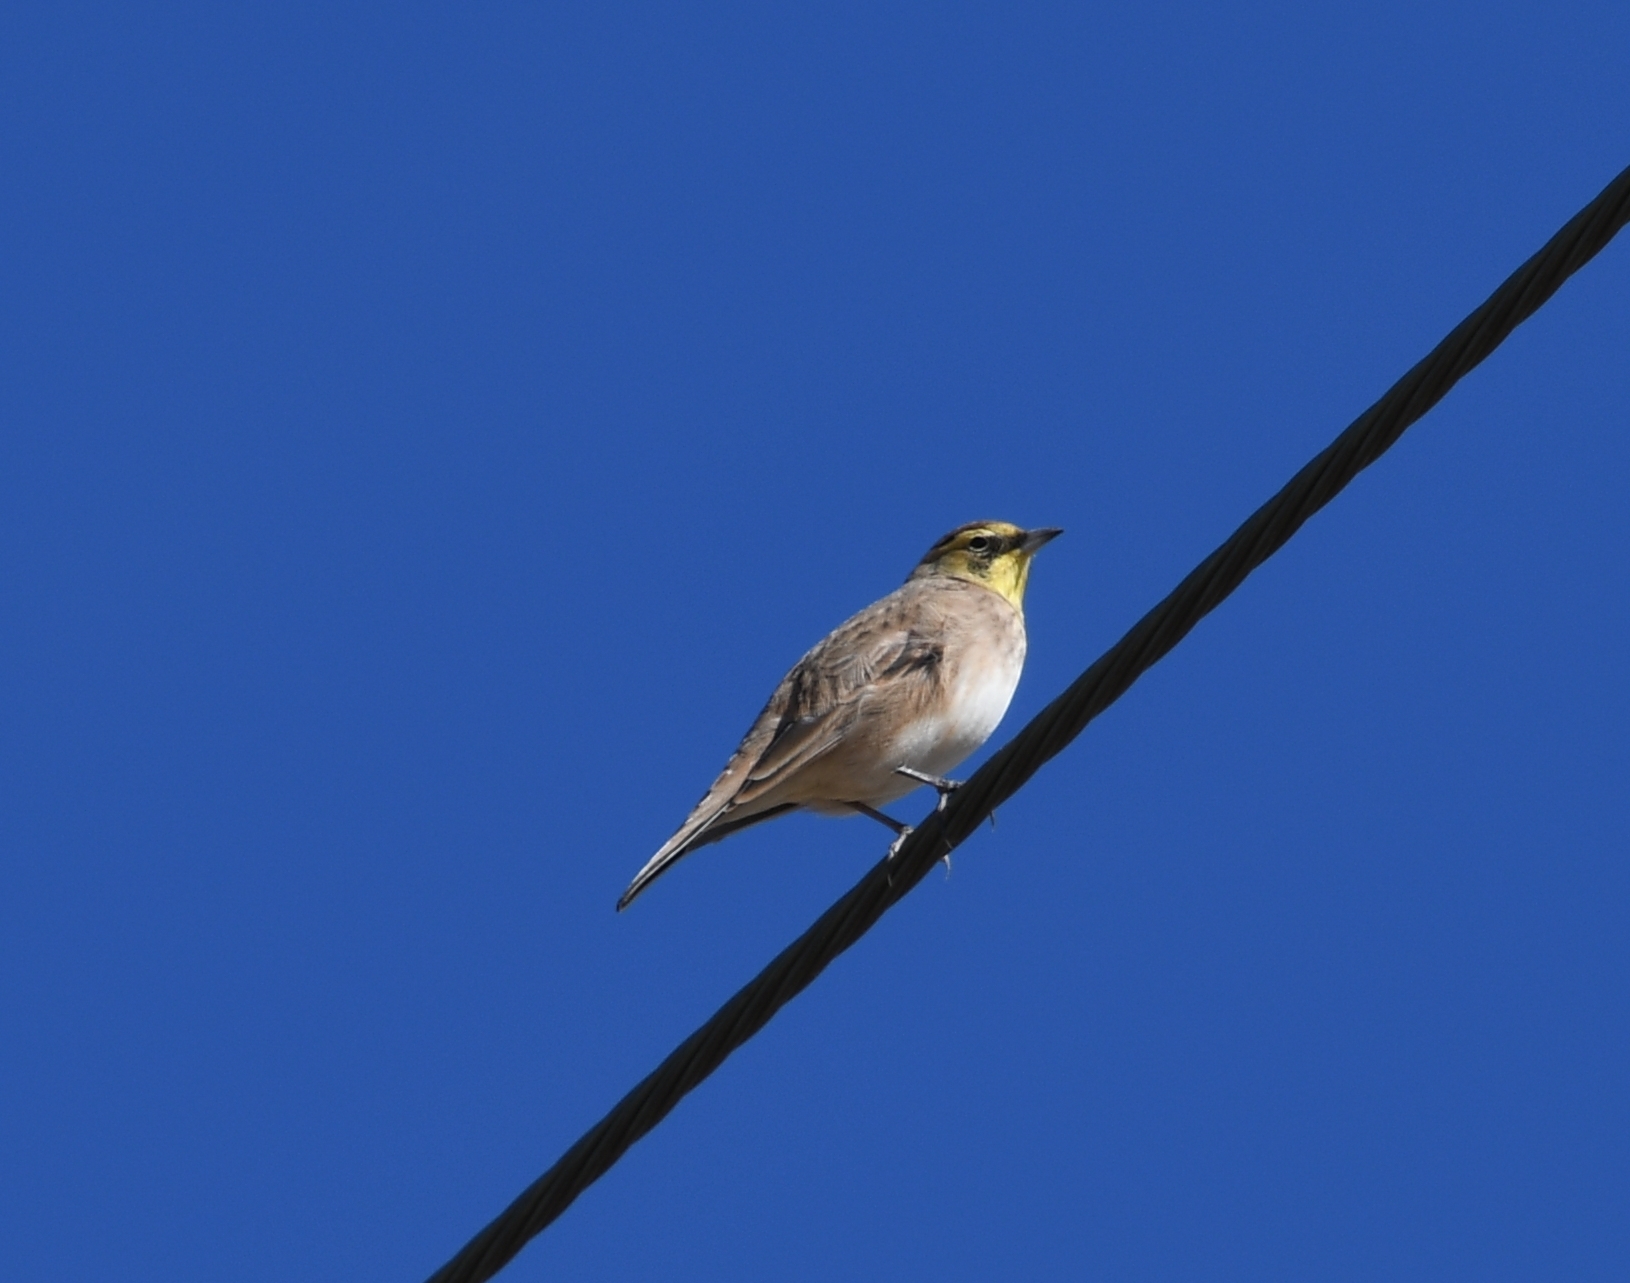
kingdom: Animalia
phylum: Chordata
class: Aves
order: Passeriformes
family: Alaudidae
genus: Eremophila
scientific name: Eremophila alpestris
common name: Horned lark
